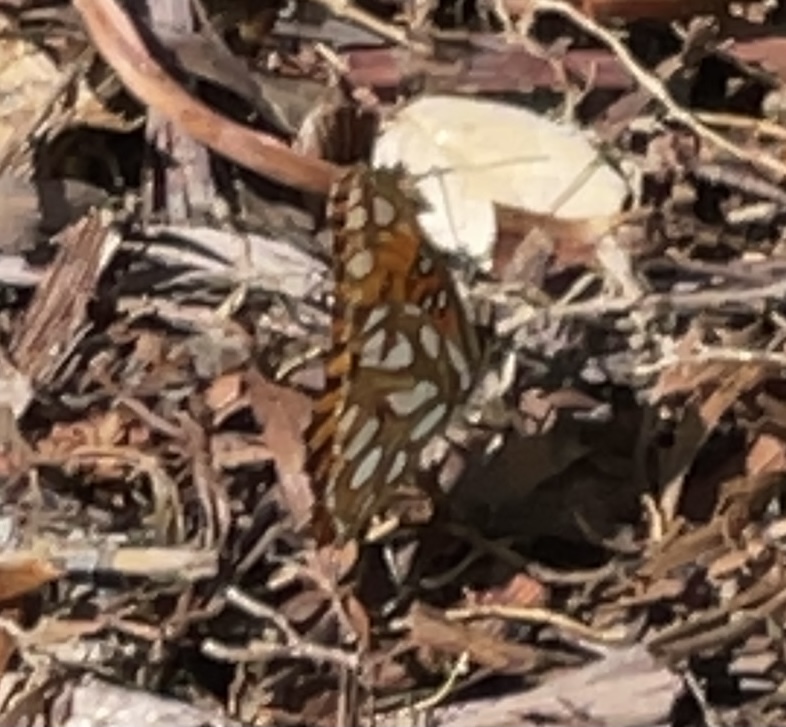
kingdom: Animalia
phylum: Arthropoda
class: Insecta
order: Lepidoptera
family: Nymphalidae
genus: Dione
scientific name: Dione vanillae
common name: Gulf fritillary
